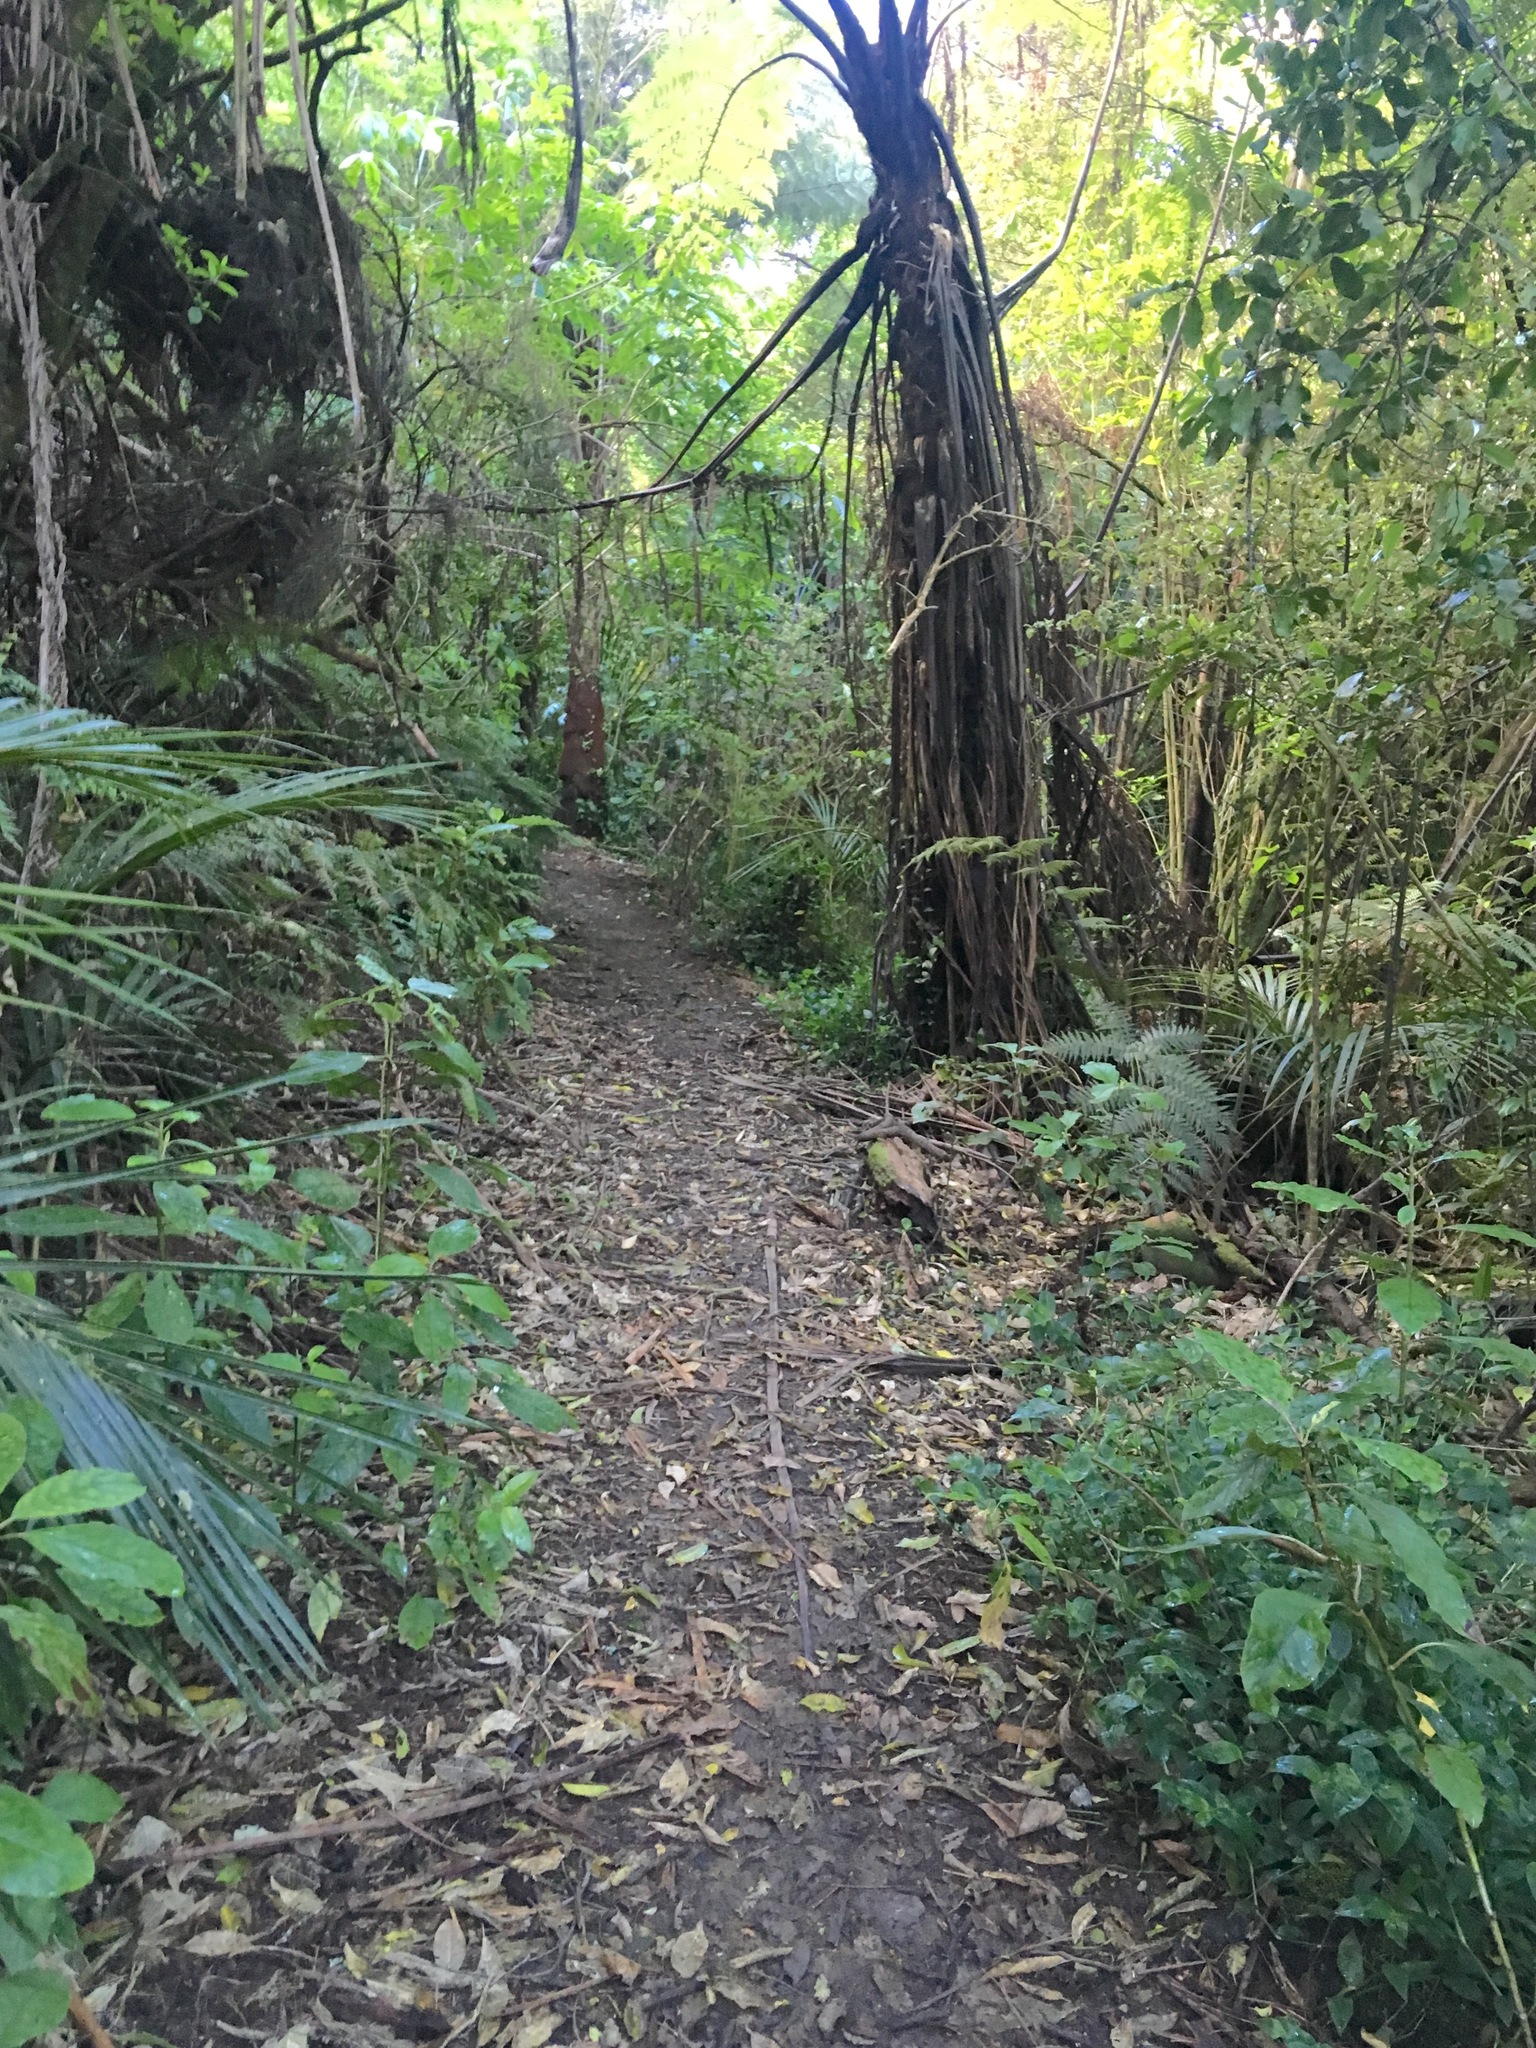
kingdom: Plantae
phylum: Tracheophyta
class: Liliopsida
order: Commelinales
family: Commelinaceae
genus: Tradescantia
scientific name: Tradescantia fluminensis
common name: Wandering-jew
